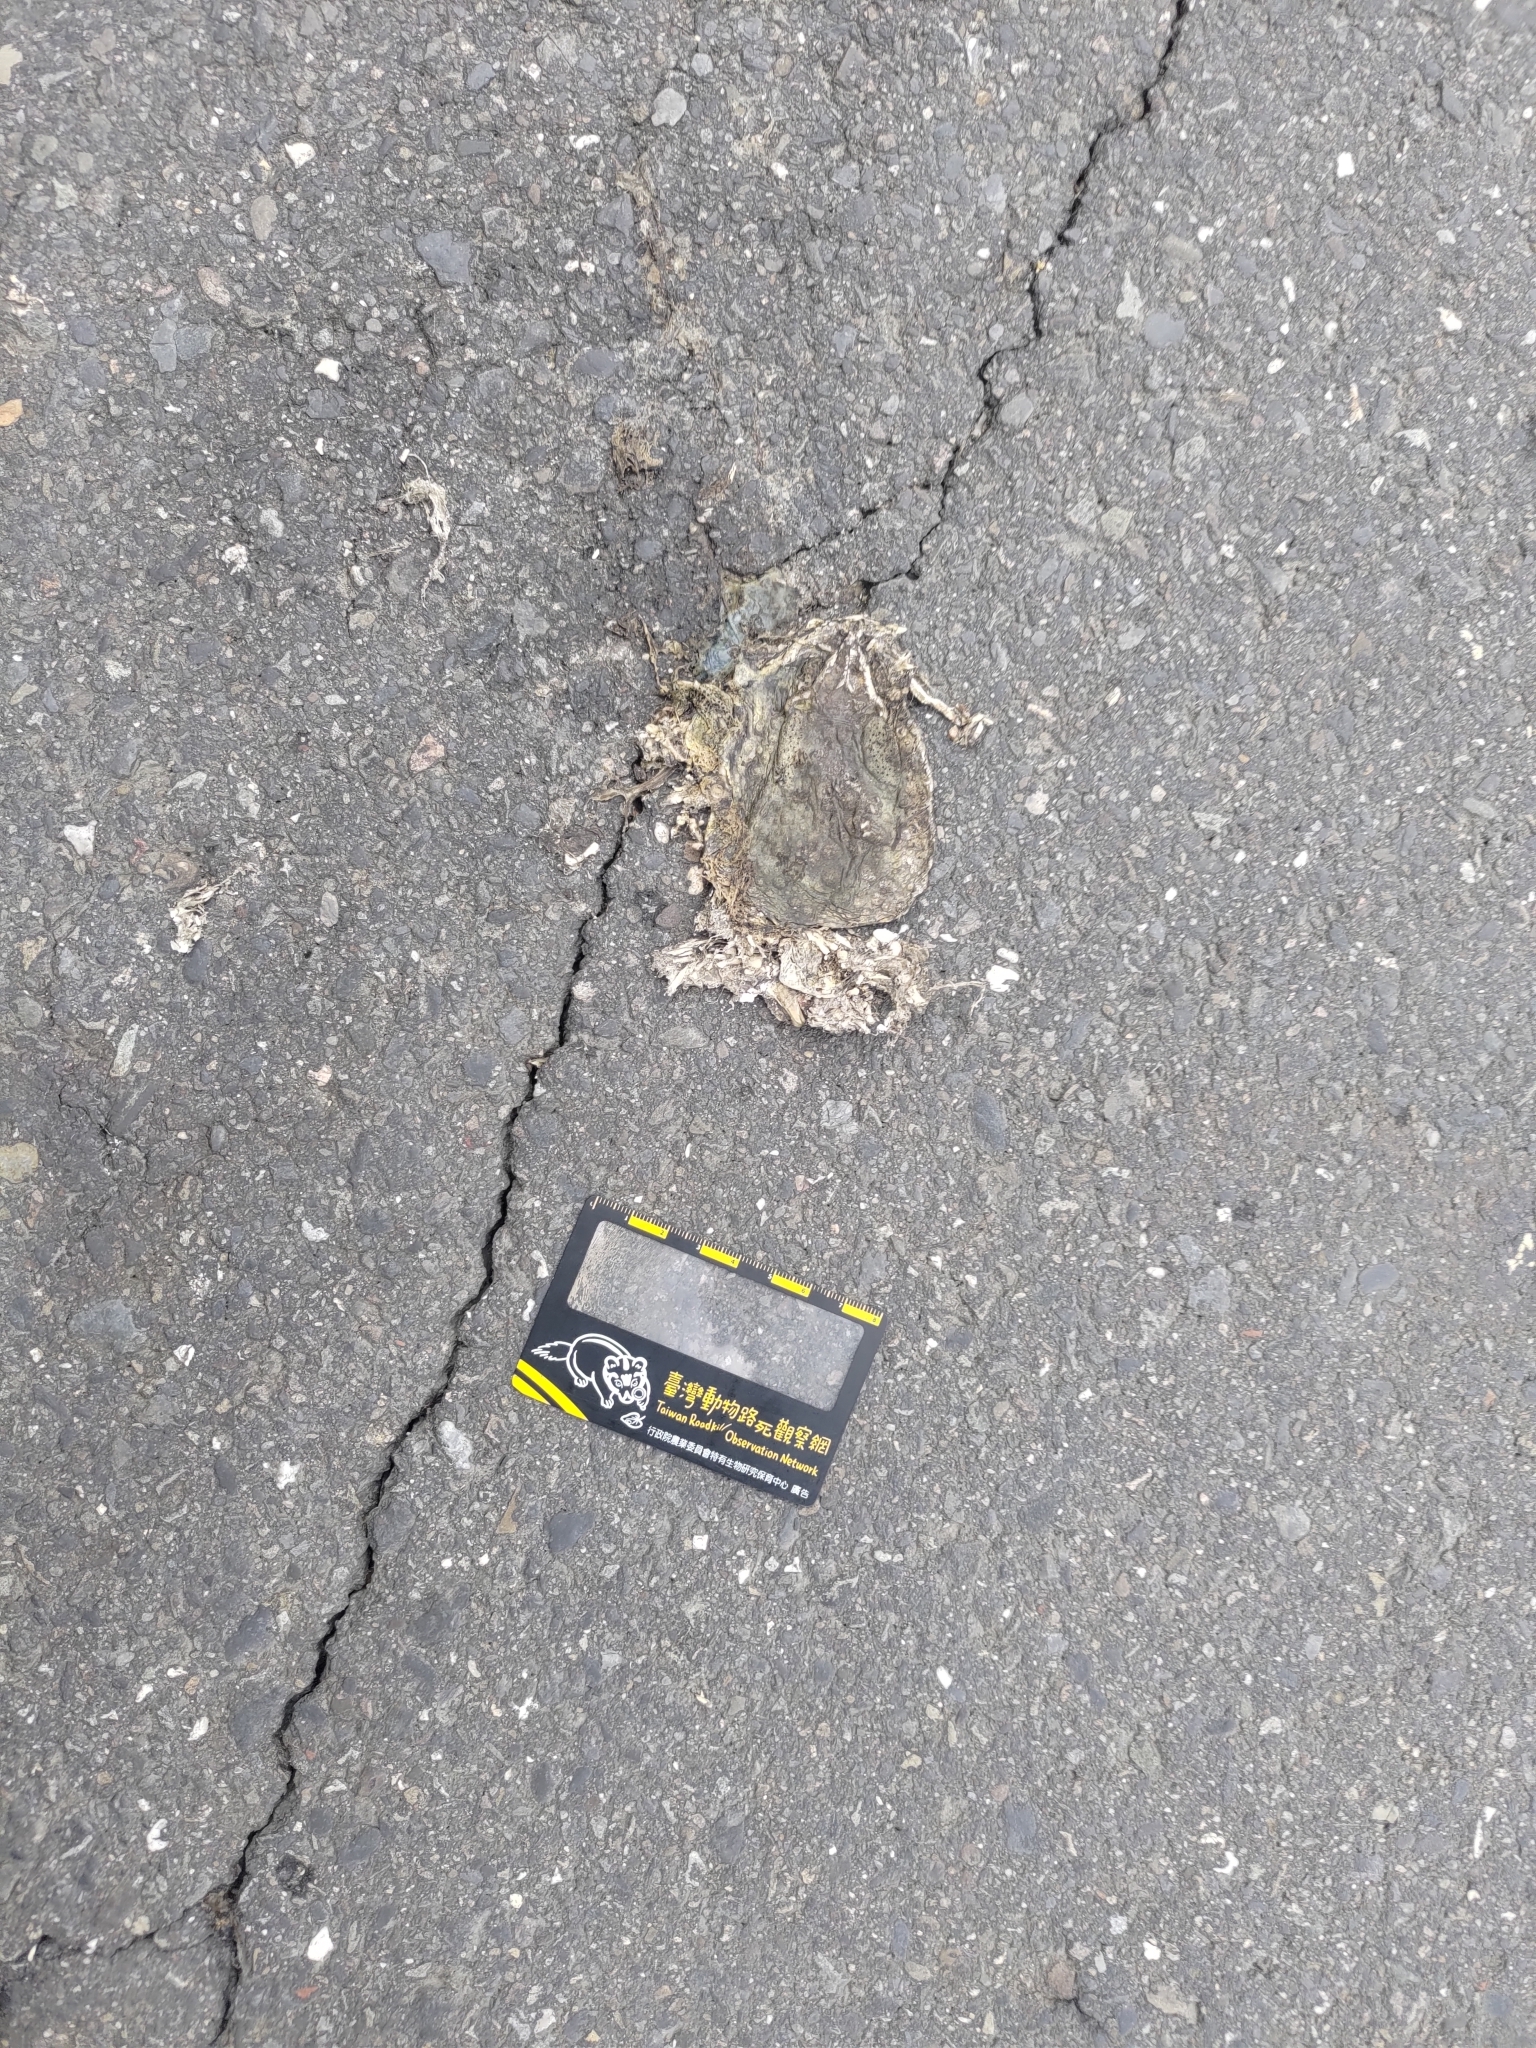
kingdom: Animalia
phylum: Chordata
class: Amphibia
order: Anura
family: Bufonidae
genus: Duttaphrynus
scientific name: Duttaphrynus melanostictus
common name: Common sunda toad
